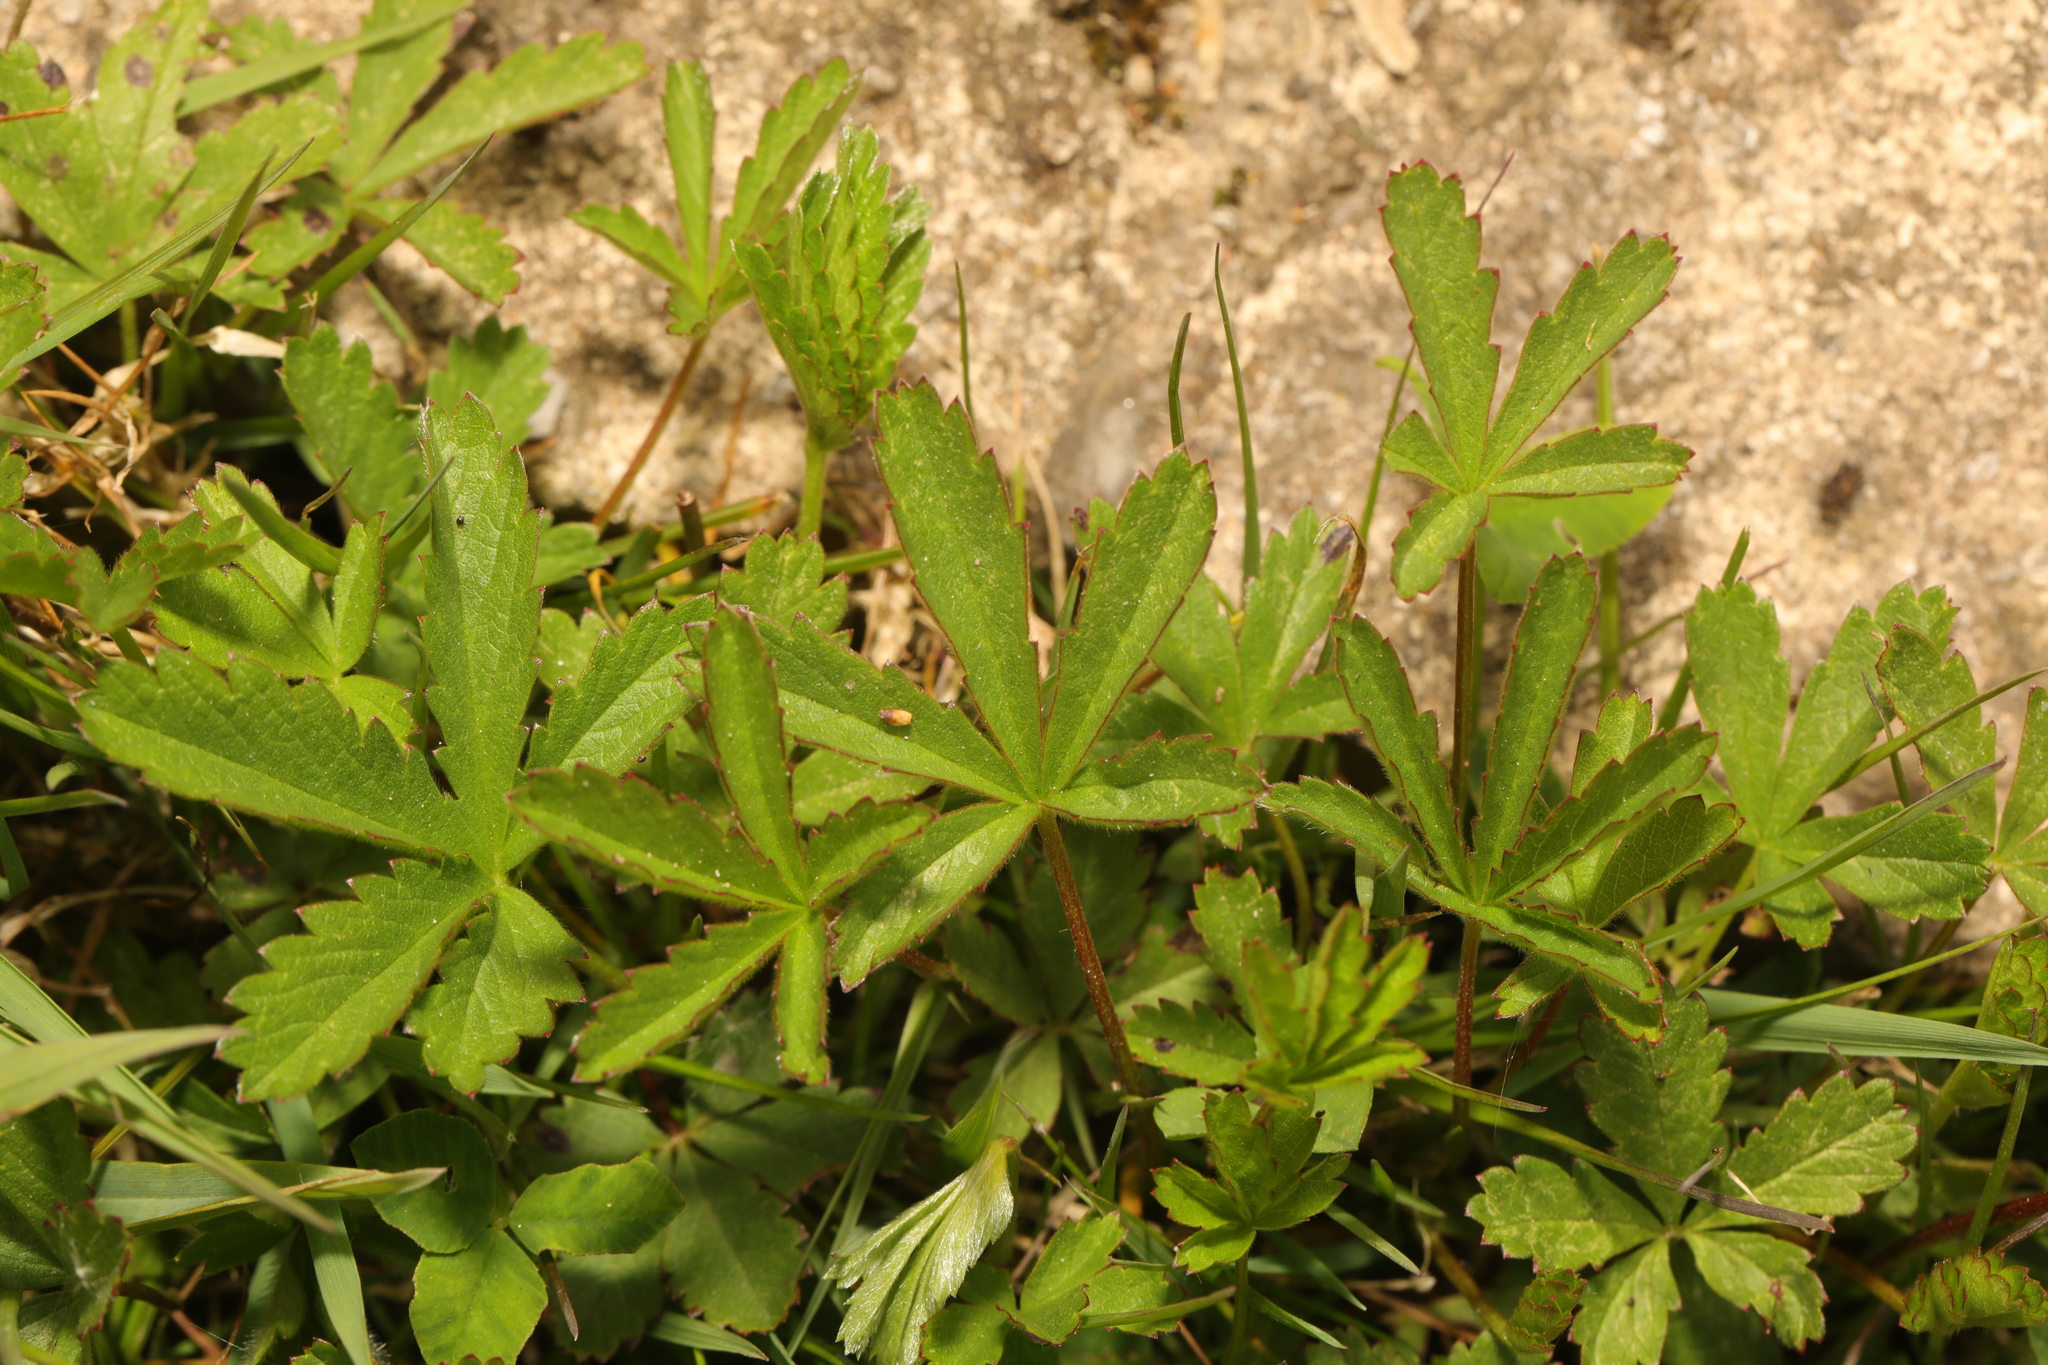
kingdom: Plantae
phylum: Tracheophyta
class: Magnoliopsida
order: Rosales
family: Rosaceae
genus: Potentilla
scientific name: Potentilla reptans
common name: Creeping cinquefoil
